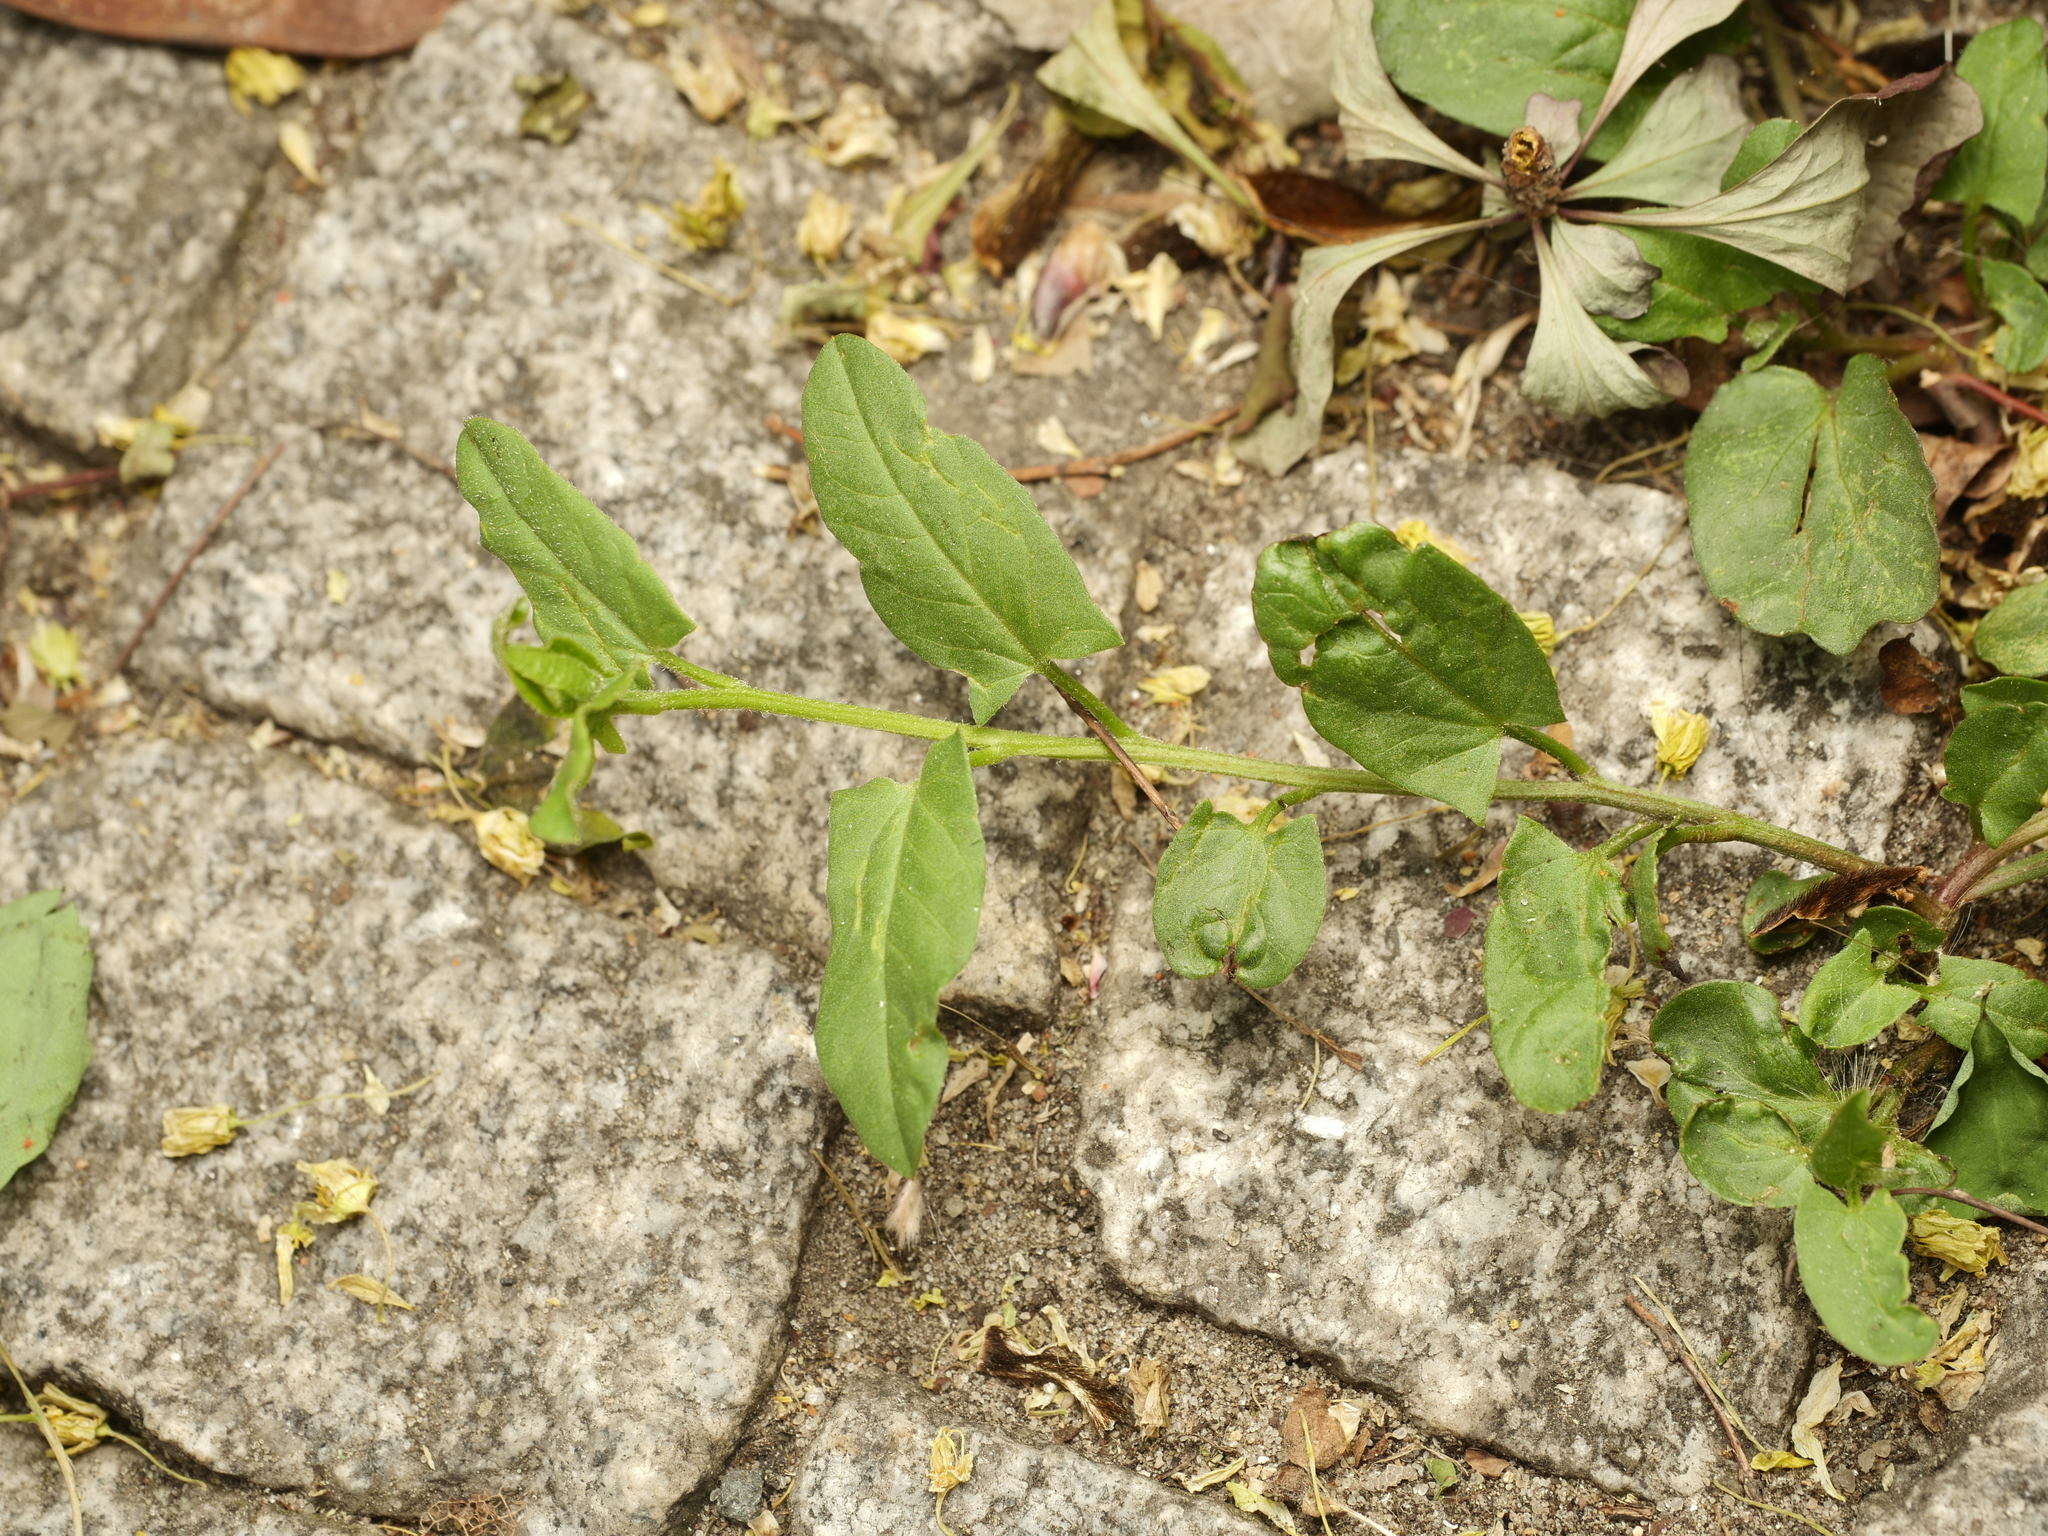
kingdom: Plantae
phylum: Tracheophyta
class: Magnoliopsida
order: Solanales
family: Convolvulaceae
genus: Convolvulus
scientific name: Convolvulus arvensis
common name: Field bindweed
